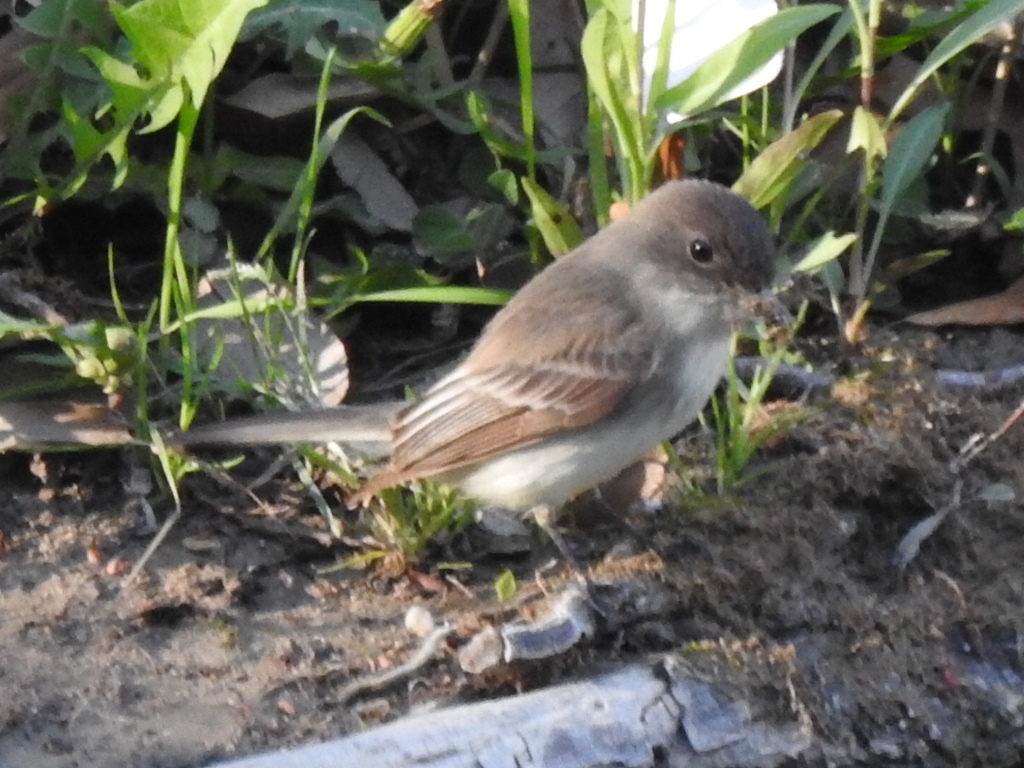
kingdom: Animalia
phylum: Chordata
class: Aves
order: Passeriformes
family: Tyrannidae
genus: Sayornis
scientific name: Sayornis phoebe
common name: Eastern phoebe
